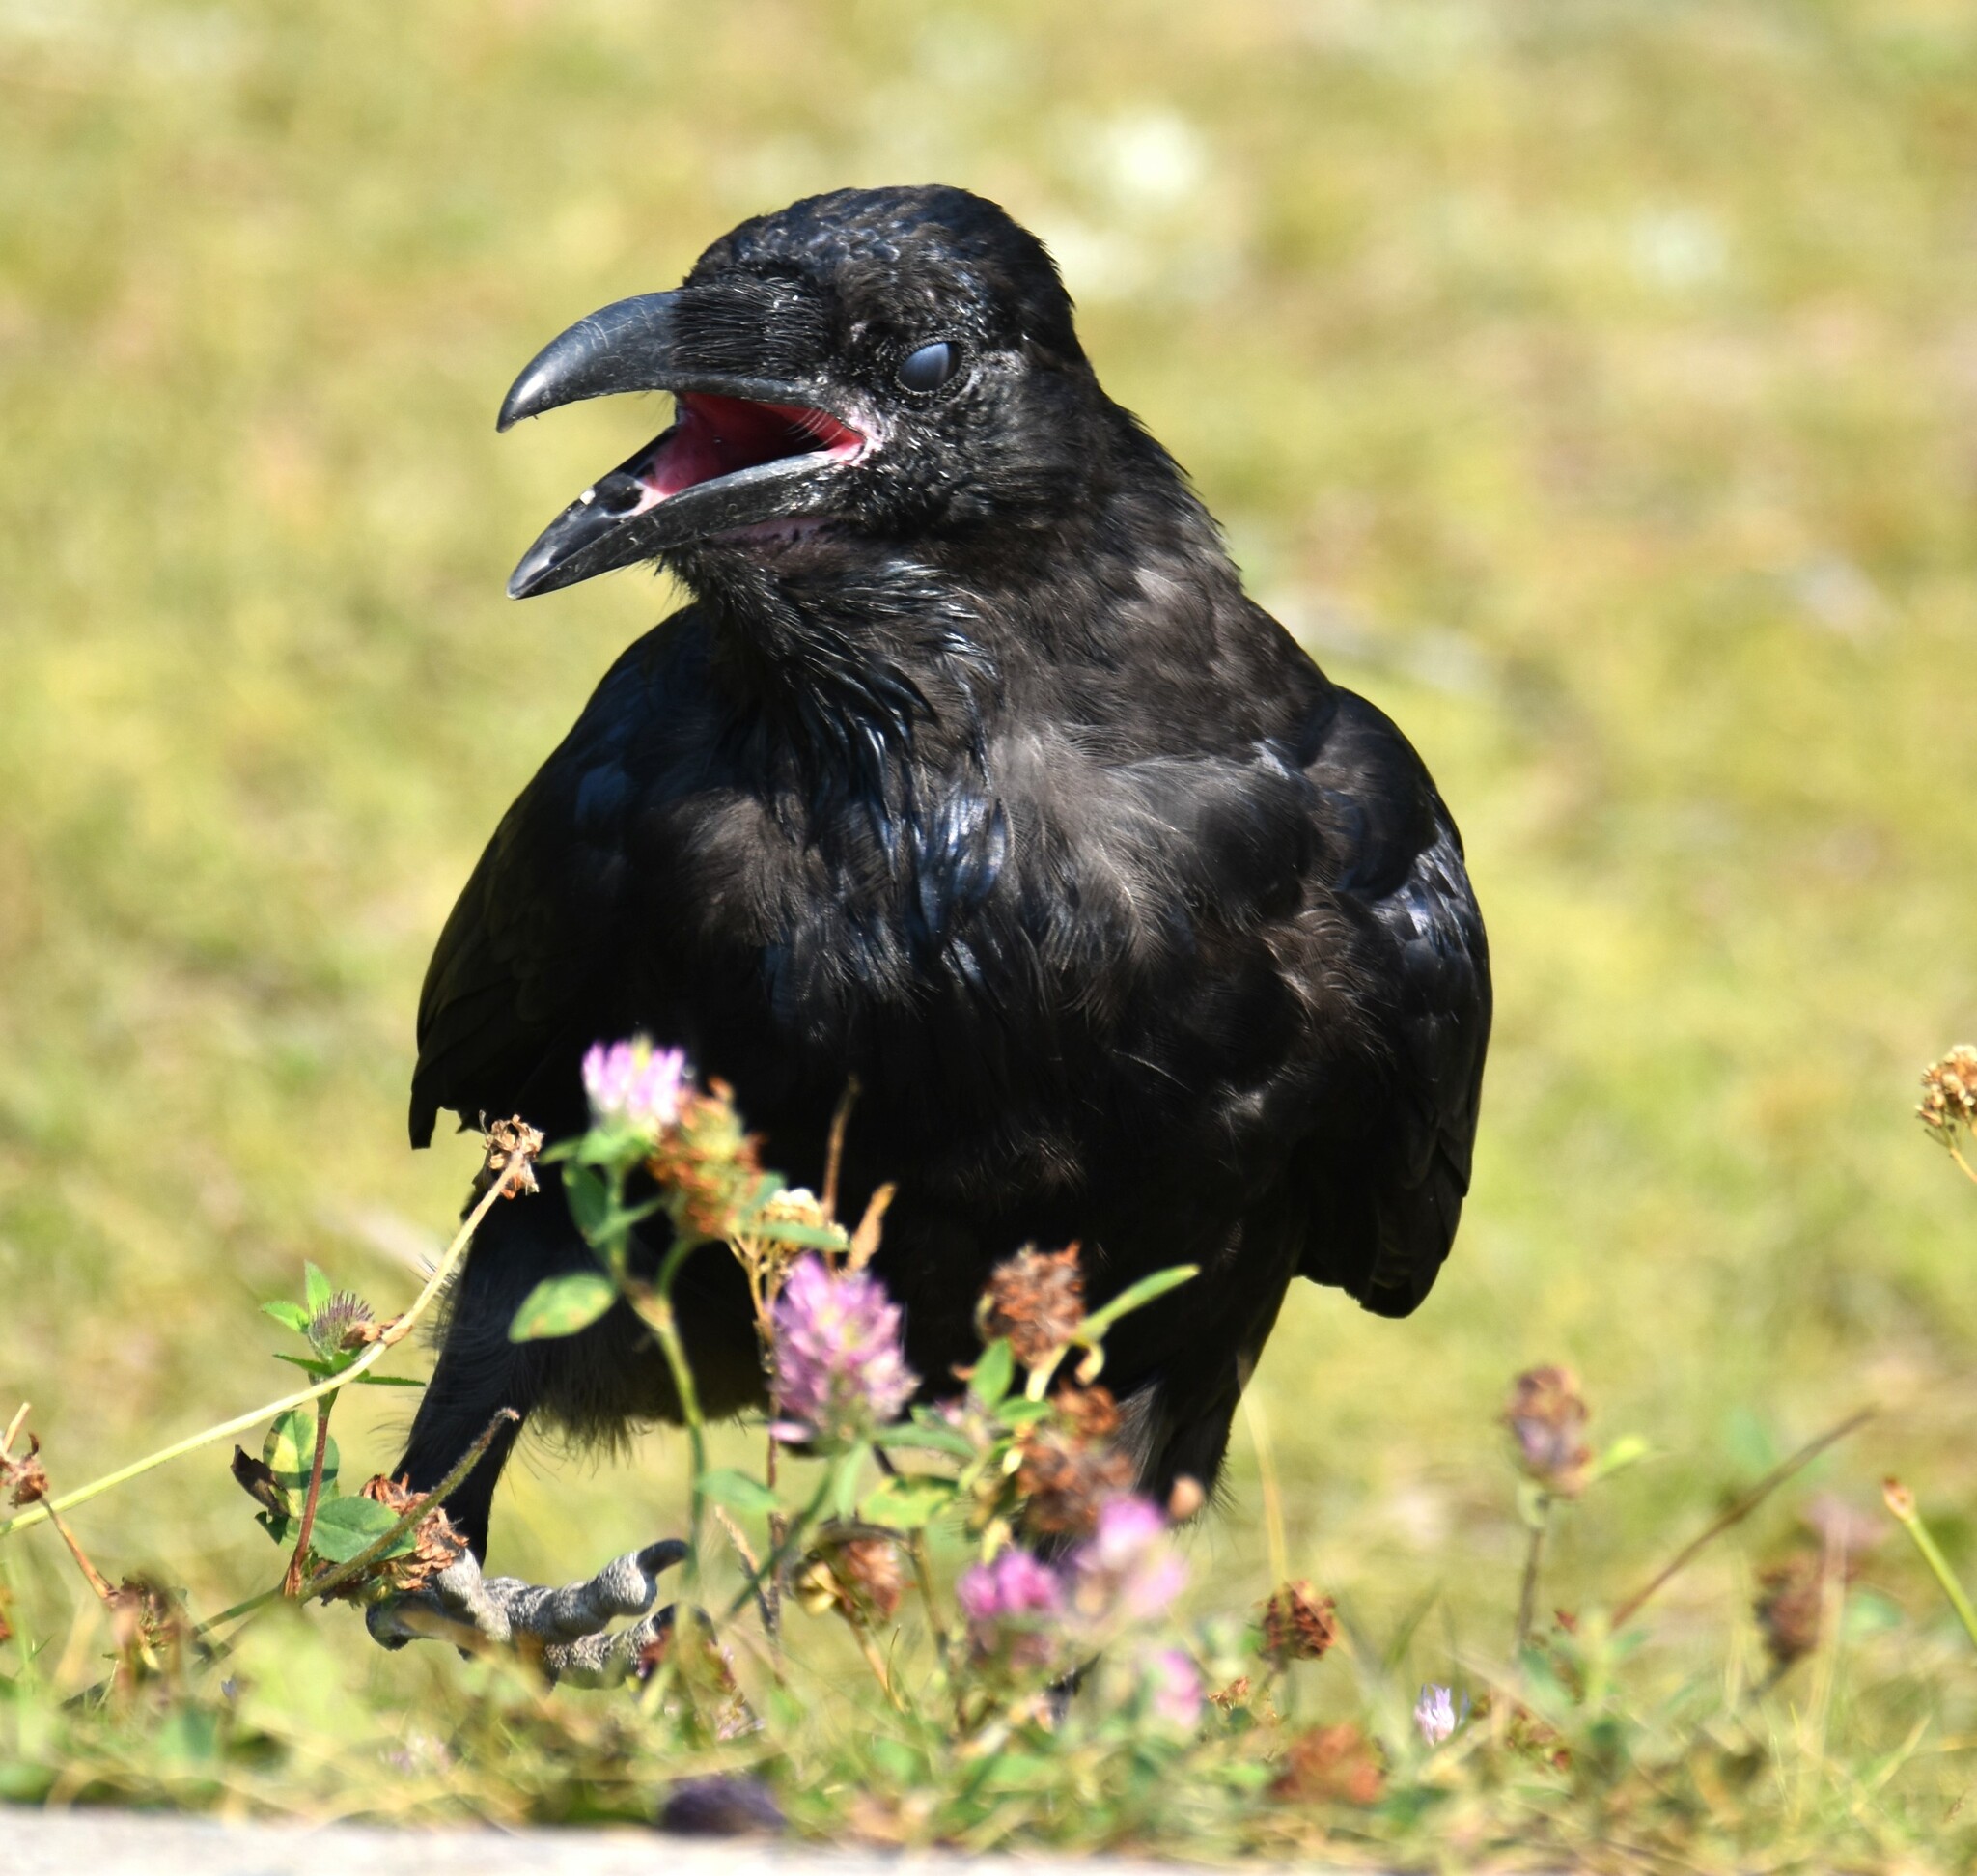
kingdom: Animalia
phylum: Chordata
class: Aves
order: Passeriformes
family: Corvidae
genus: Corvus
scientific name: Corvus corax
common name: Common raven
